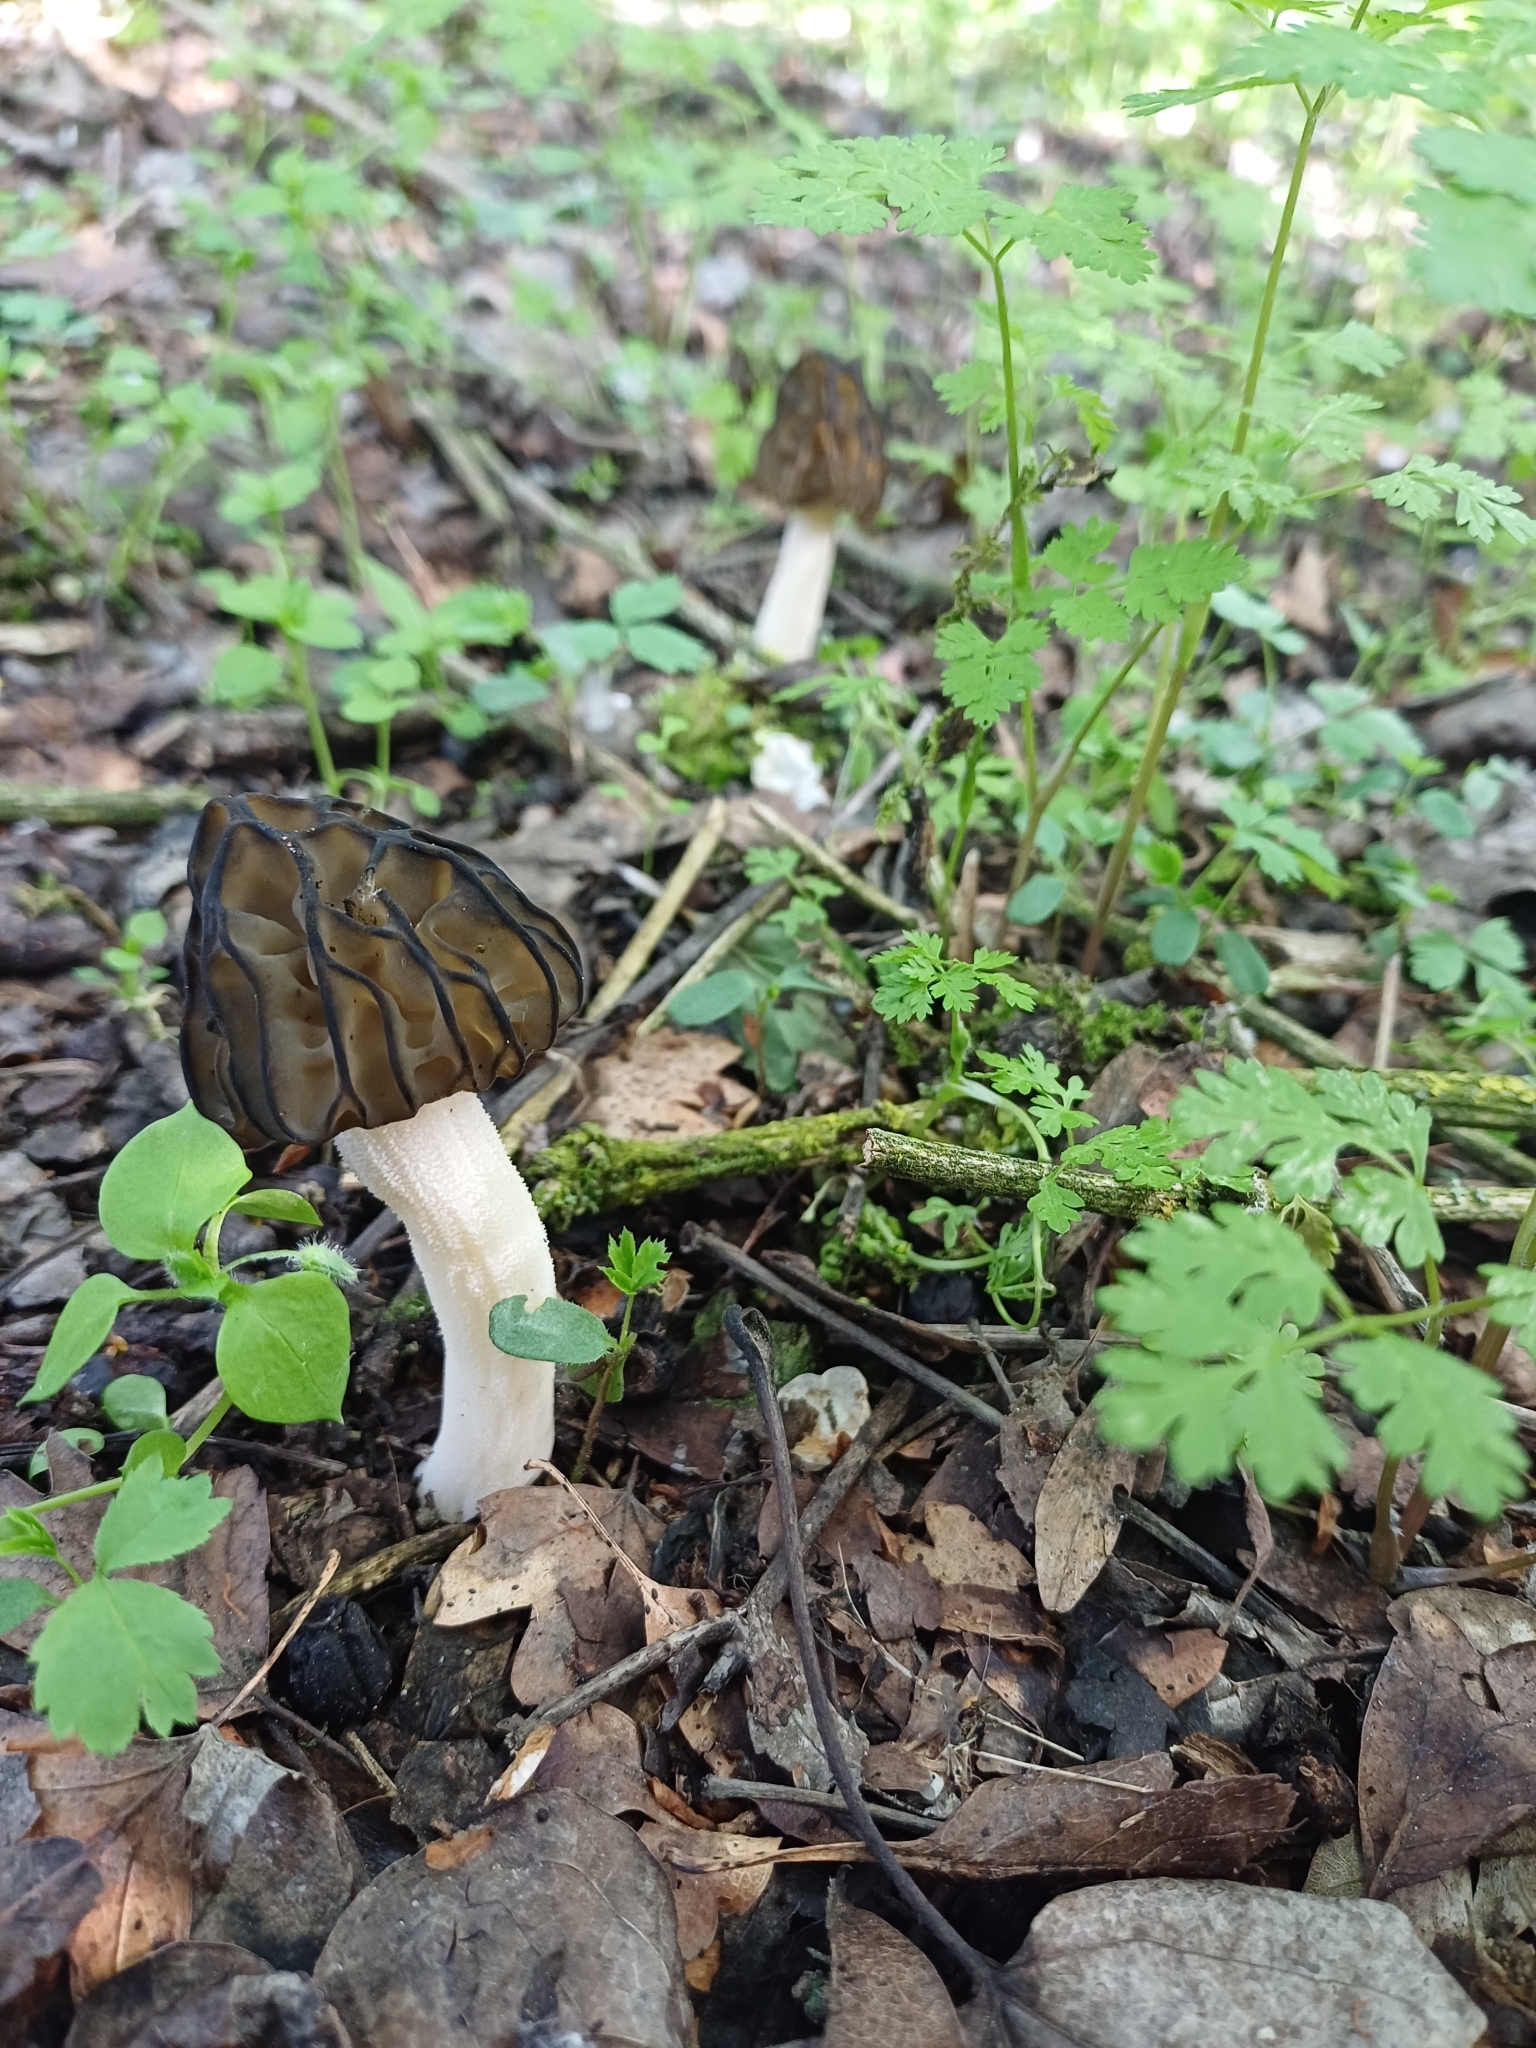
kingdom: Fungi
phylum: Ascomycota
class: Pezizomycetes
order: Pezizales
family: Morchellaceae
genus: Morchella
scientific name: Morchella semilibera
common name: Semifree morel
